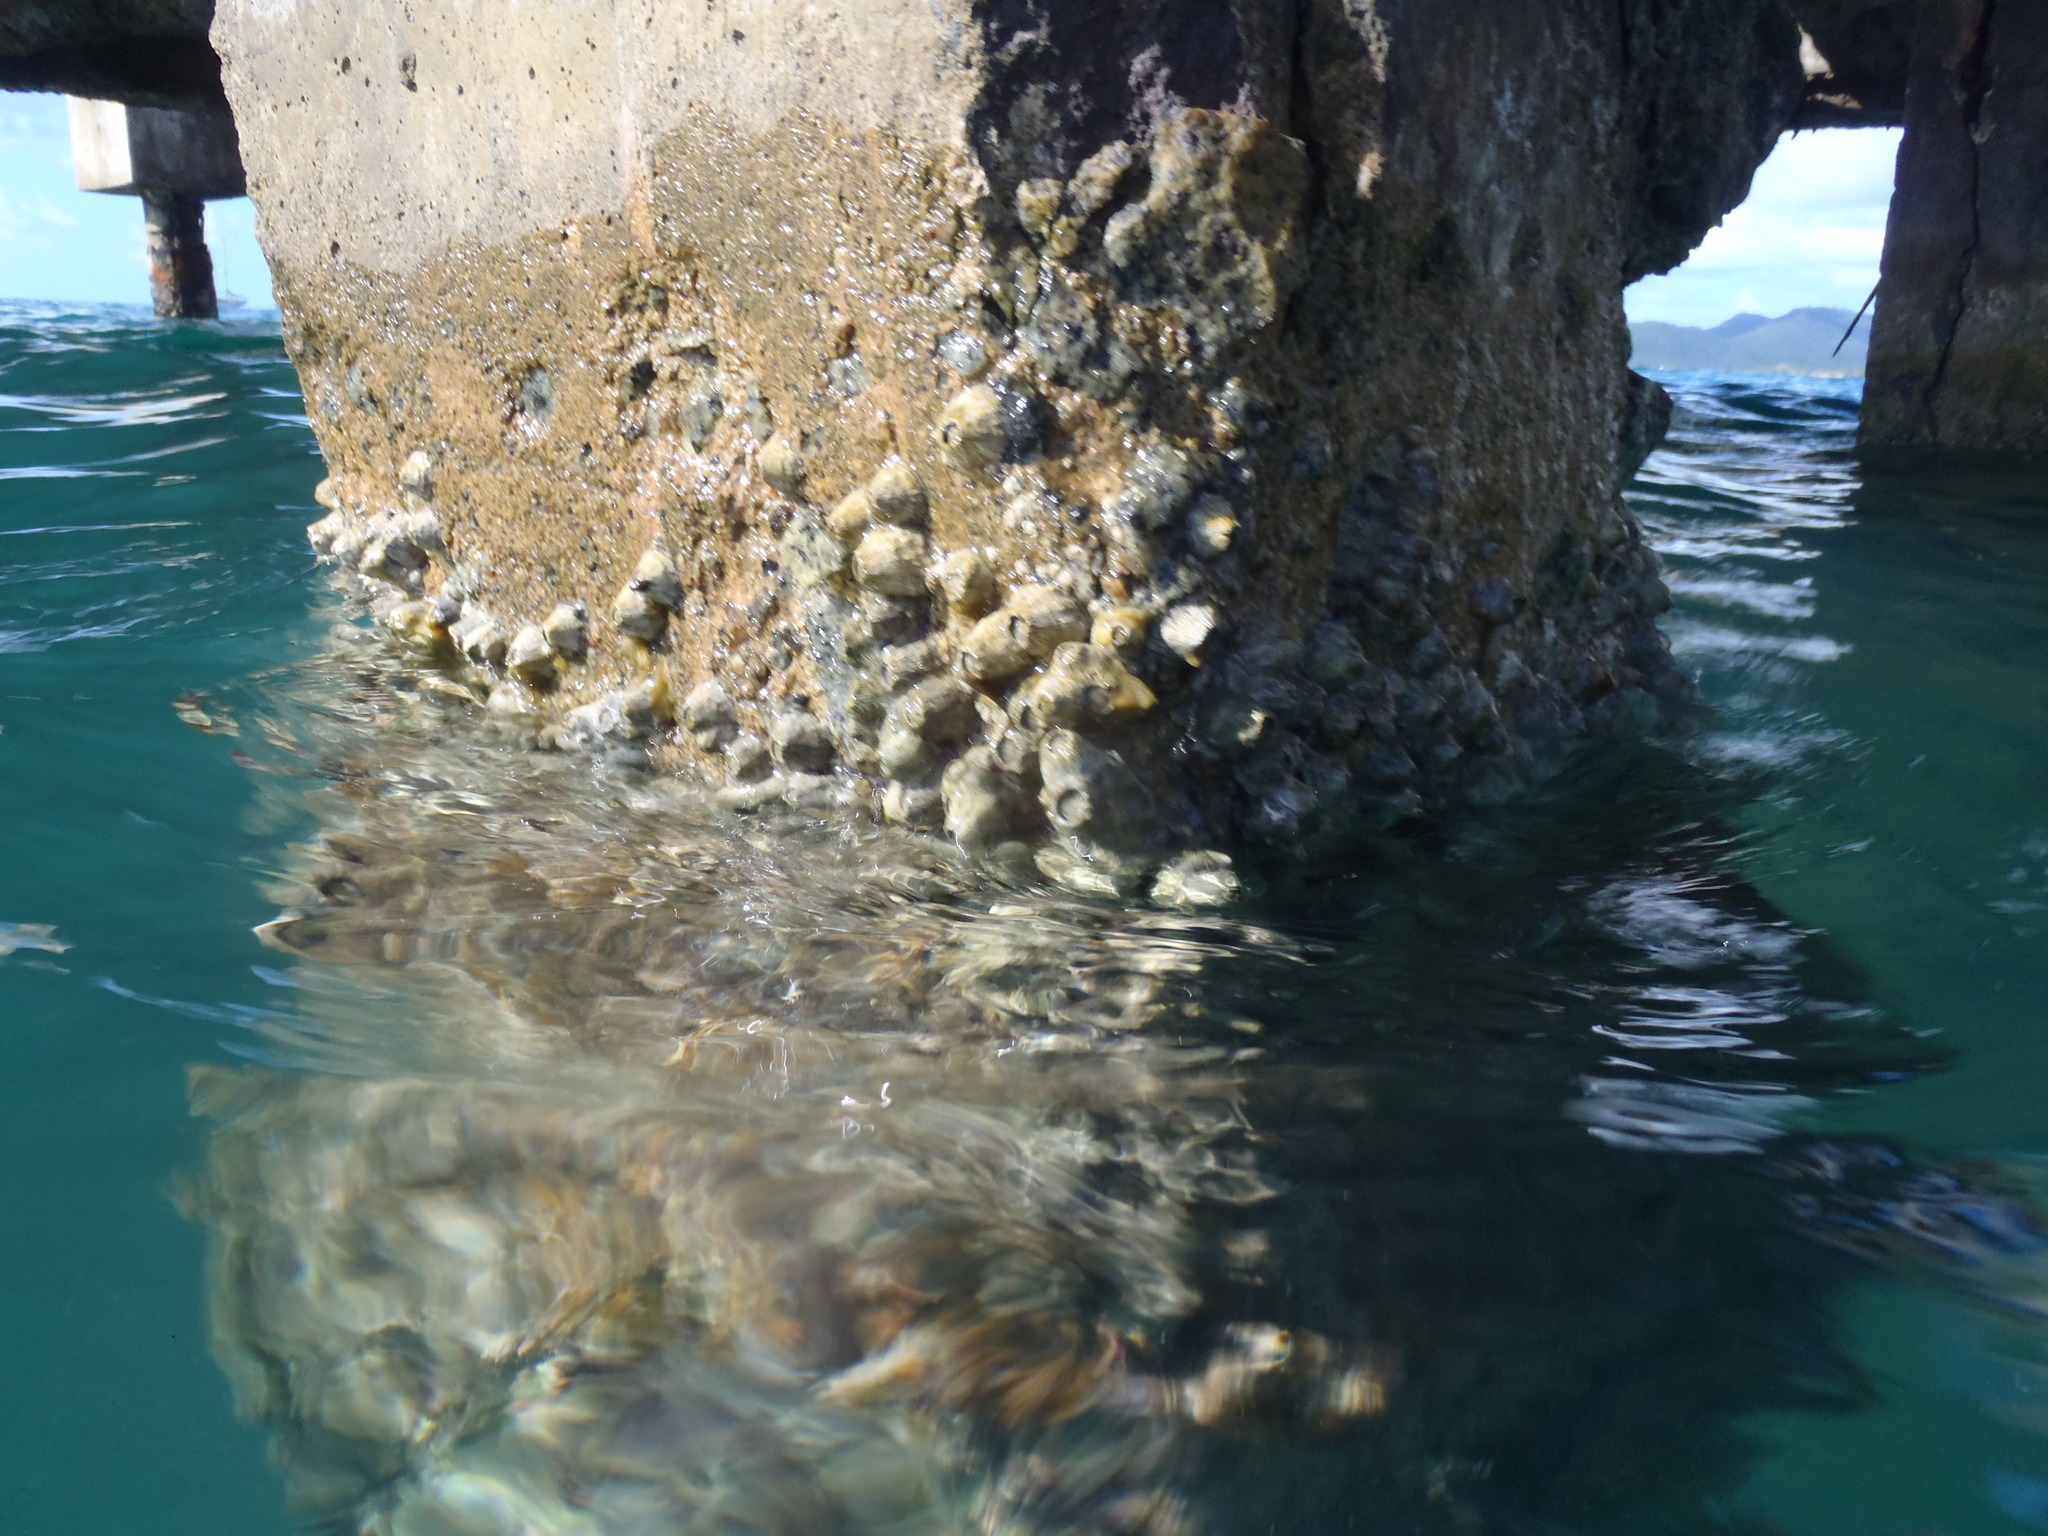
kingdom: Animalia
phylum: Arthropoda
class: Maxillopoda
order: Sessilia
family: Tetraclitidae
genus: Tetraclita
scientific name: Tetraclita stalactifera
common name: Ribbed barnacle
